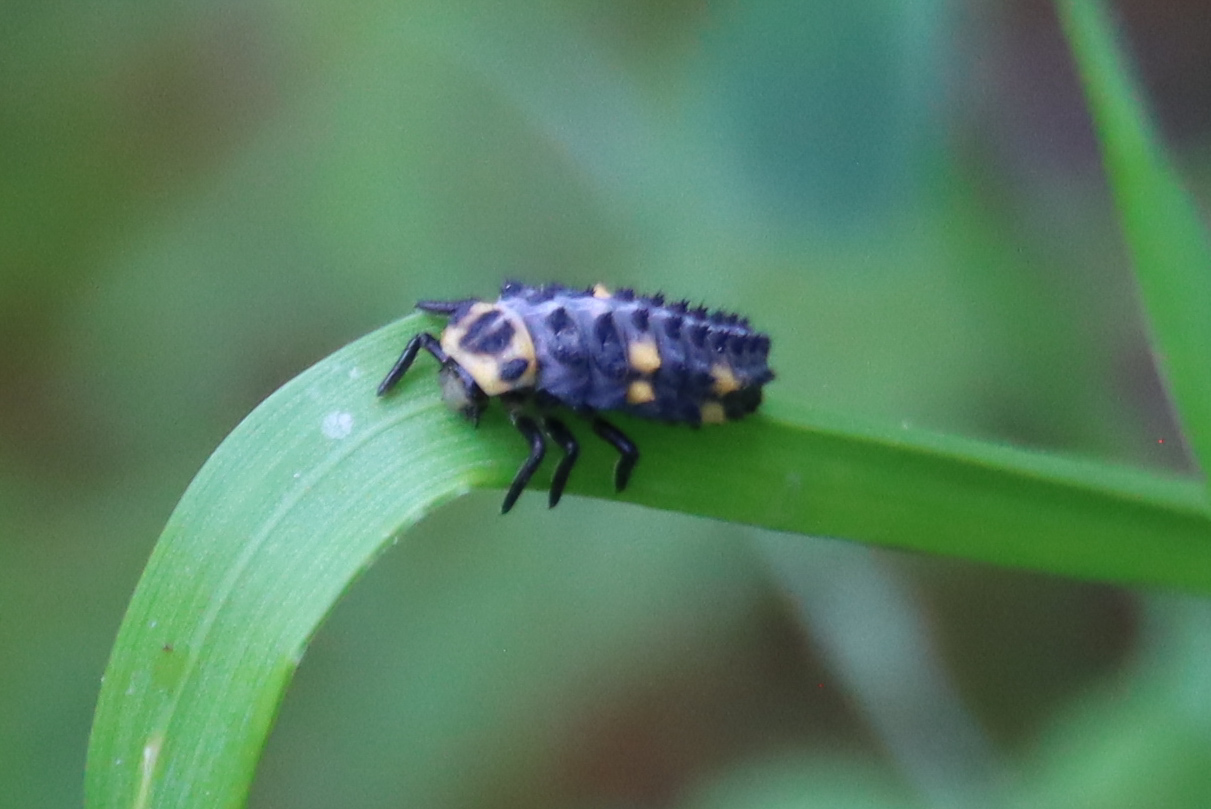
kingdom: Animalia
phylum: Arthropoda
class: Insecta
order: Coleoptera
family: Coccinellidae
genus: Coccinella
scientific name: Coccinella septempunctata
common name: Sevenspotted lady beetle
